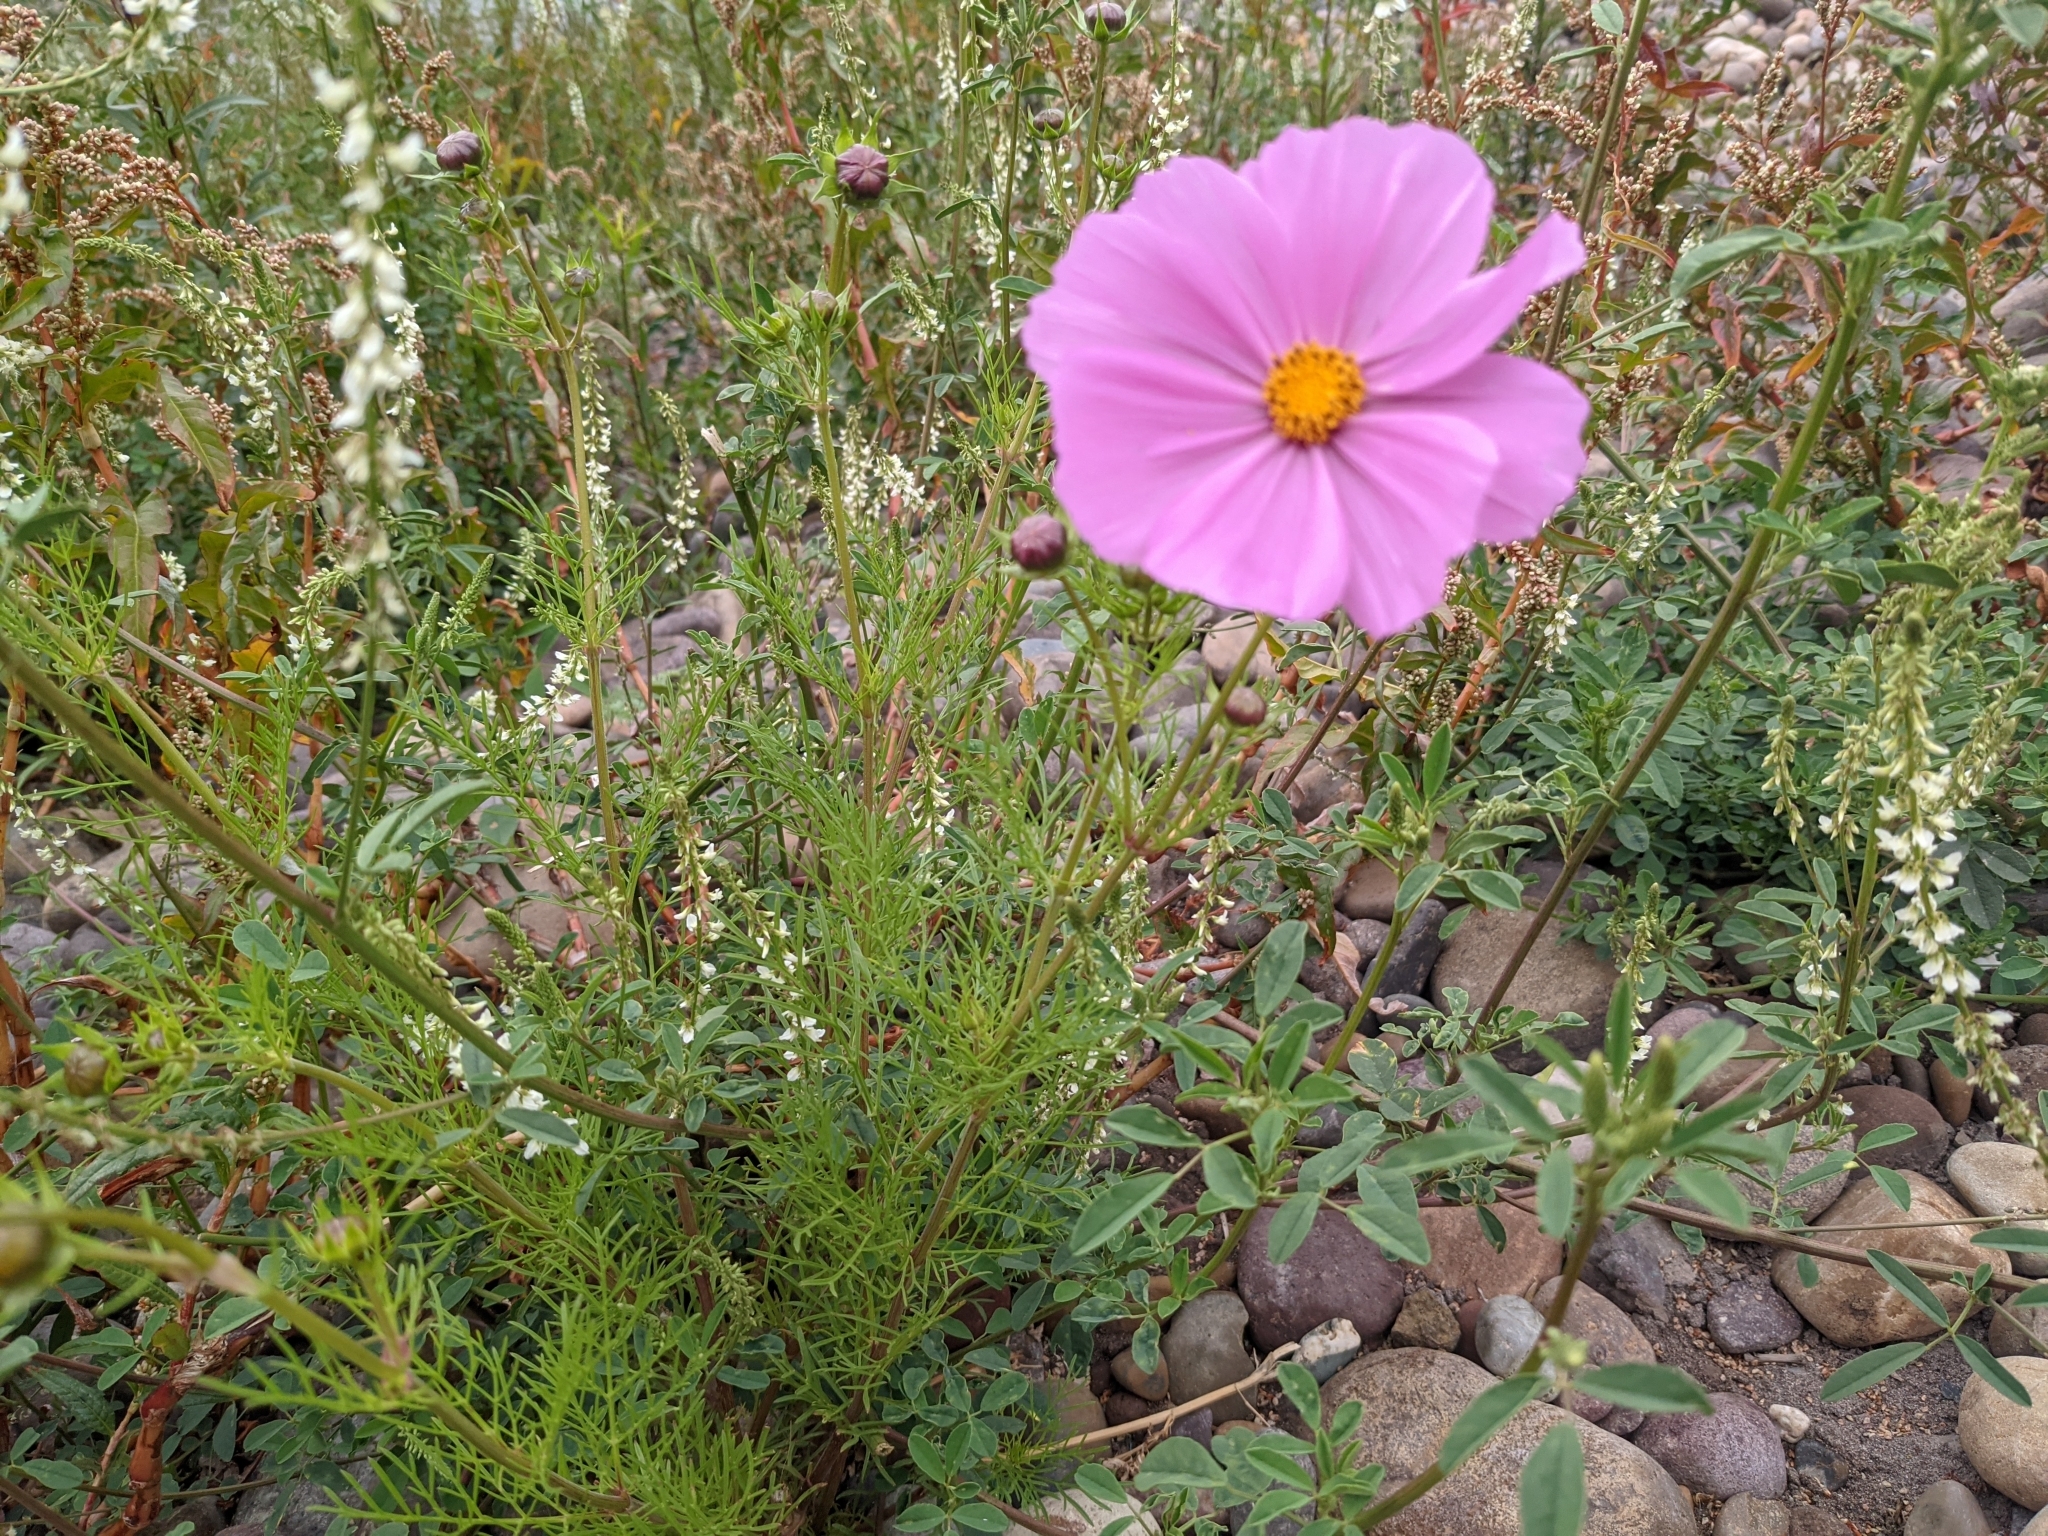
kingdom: Plantae
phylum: Tracheophyta
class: Magnoliopsida
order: Asterales
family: Asteraceae
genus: Cosmos
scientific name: Cosmos bipinnatus
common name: Garden cosmos
